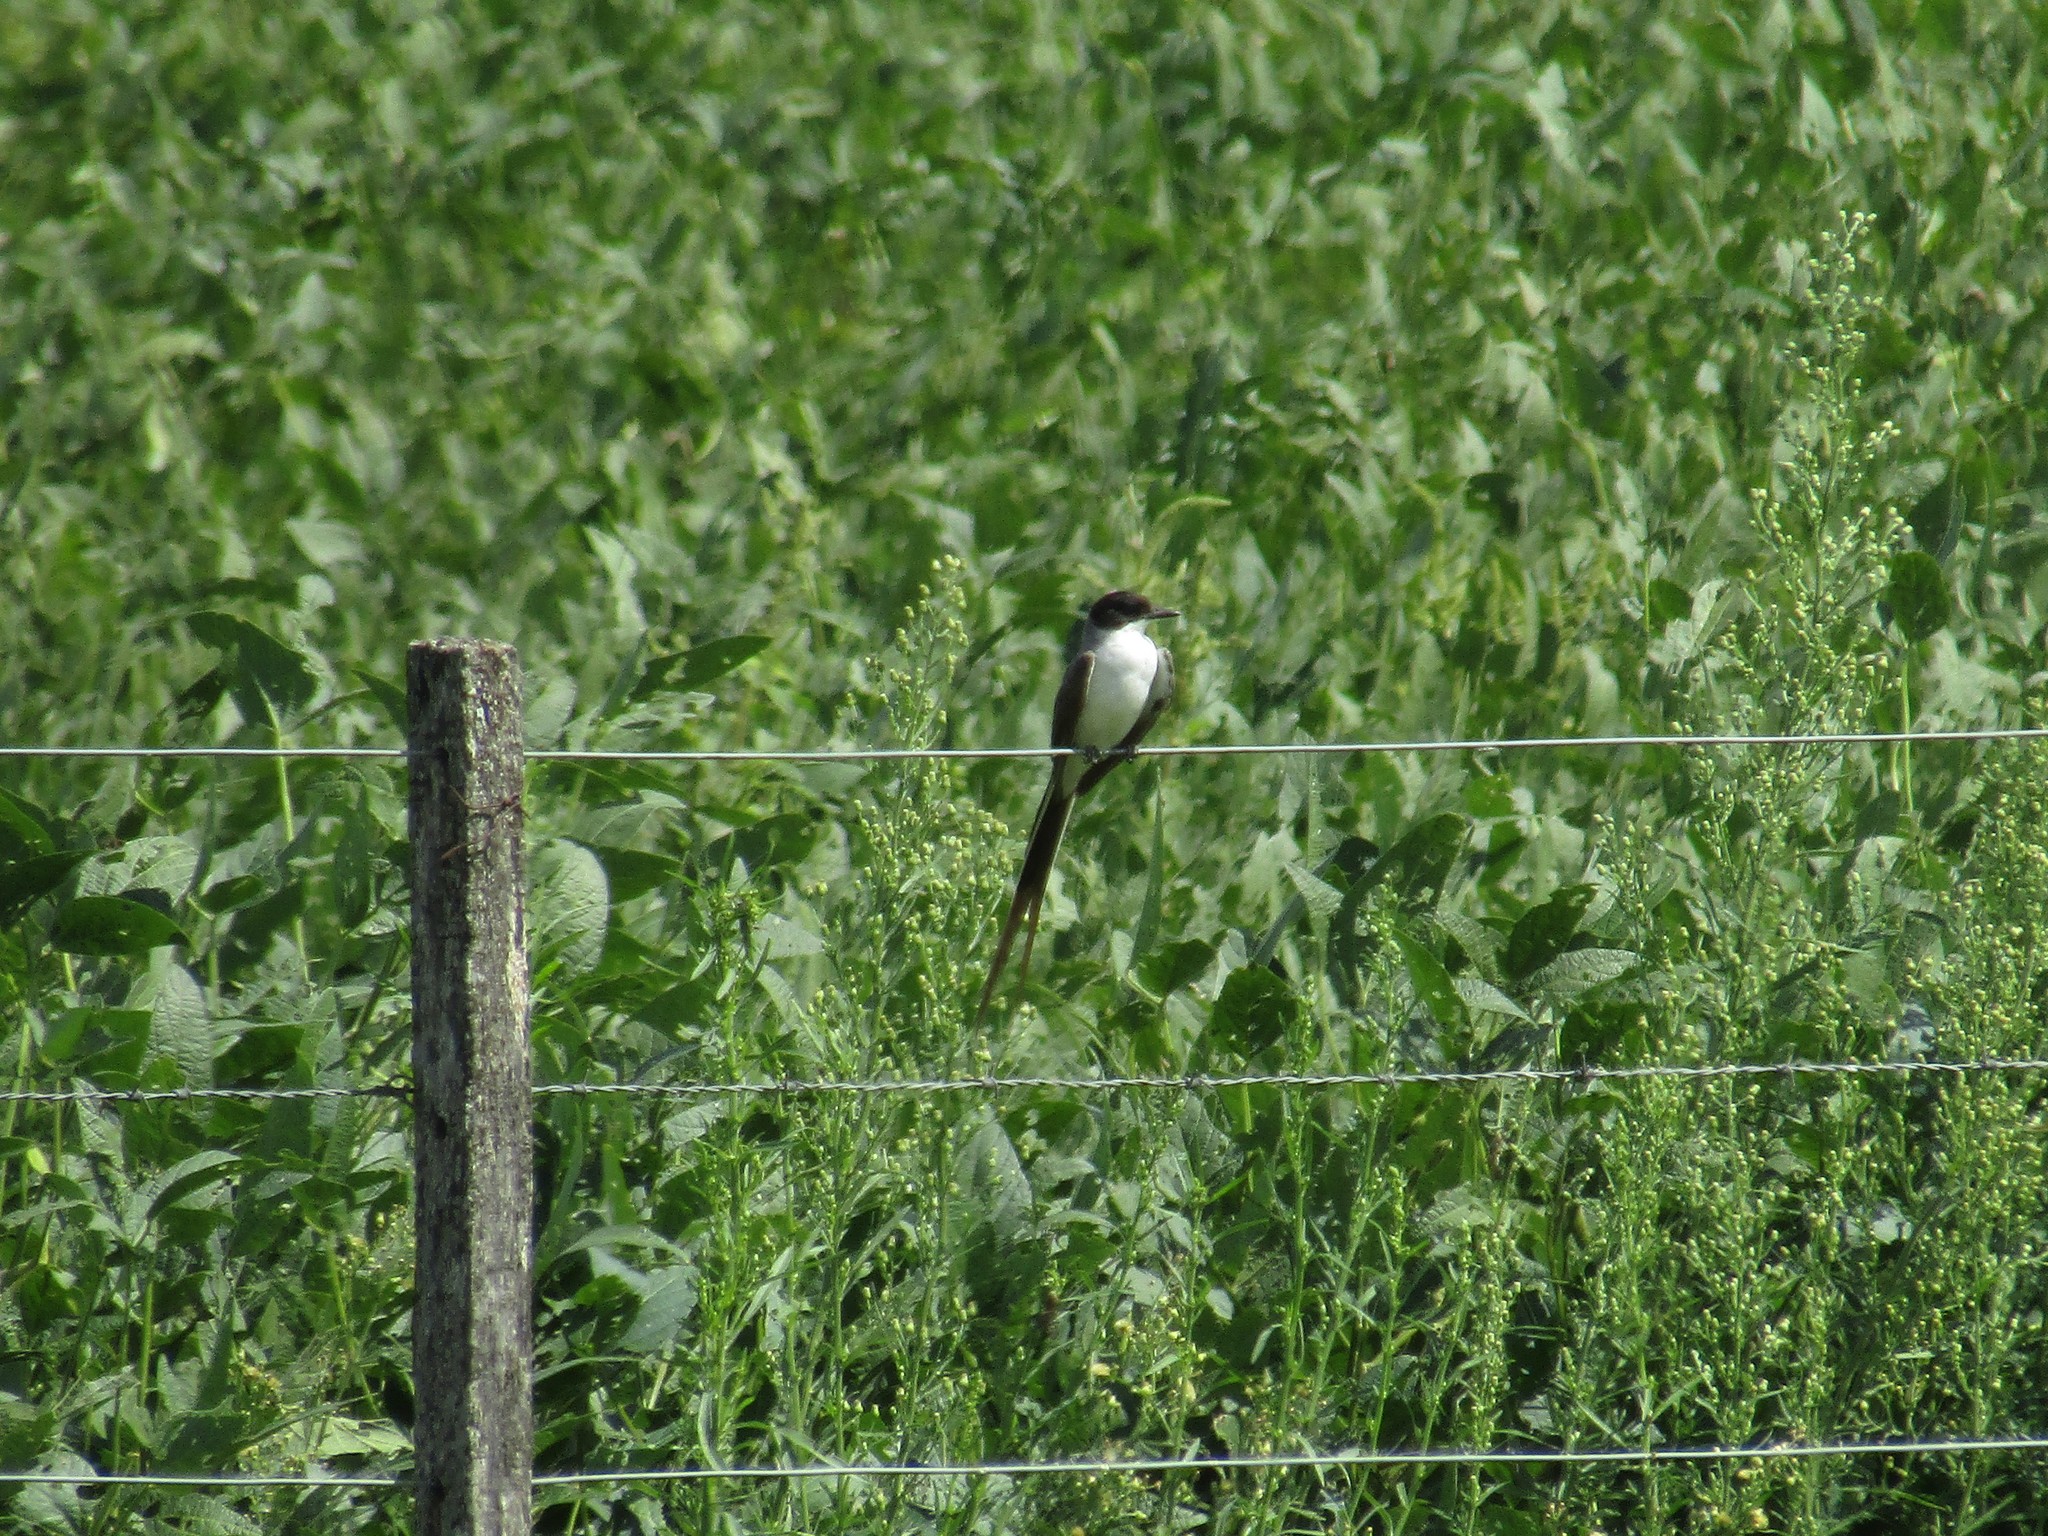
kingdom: Animalia
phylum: Chordata
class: Aves
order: Passeriformes
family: Tyrannidae
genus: Tyrannus
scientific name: Tyrannus savana
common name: Fork-tailed flycatcher
